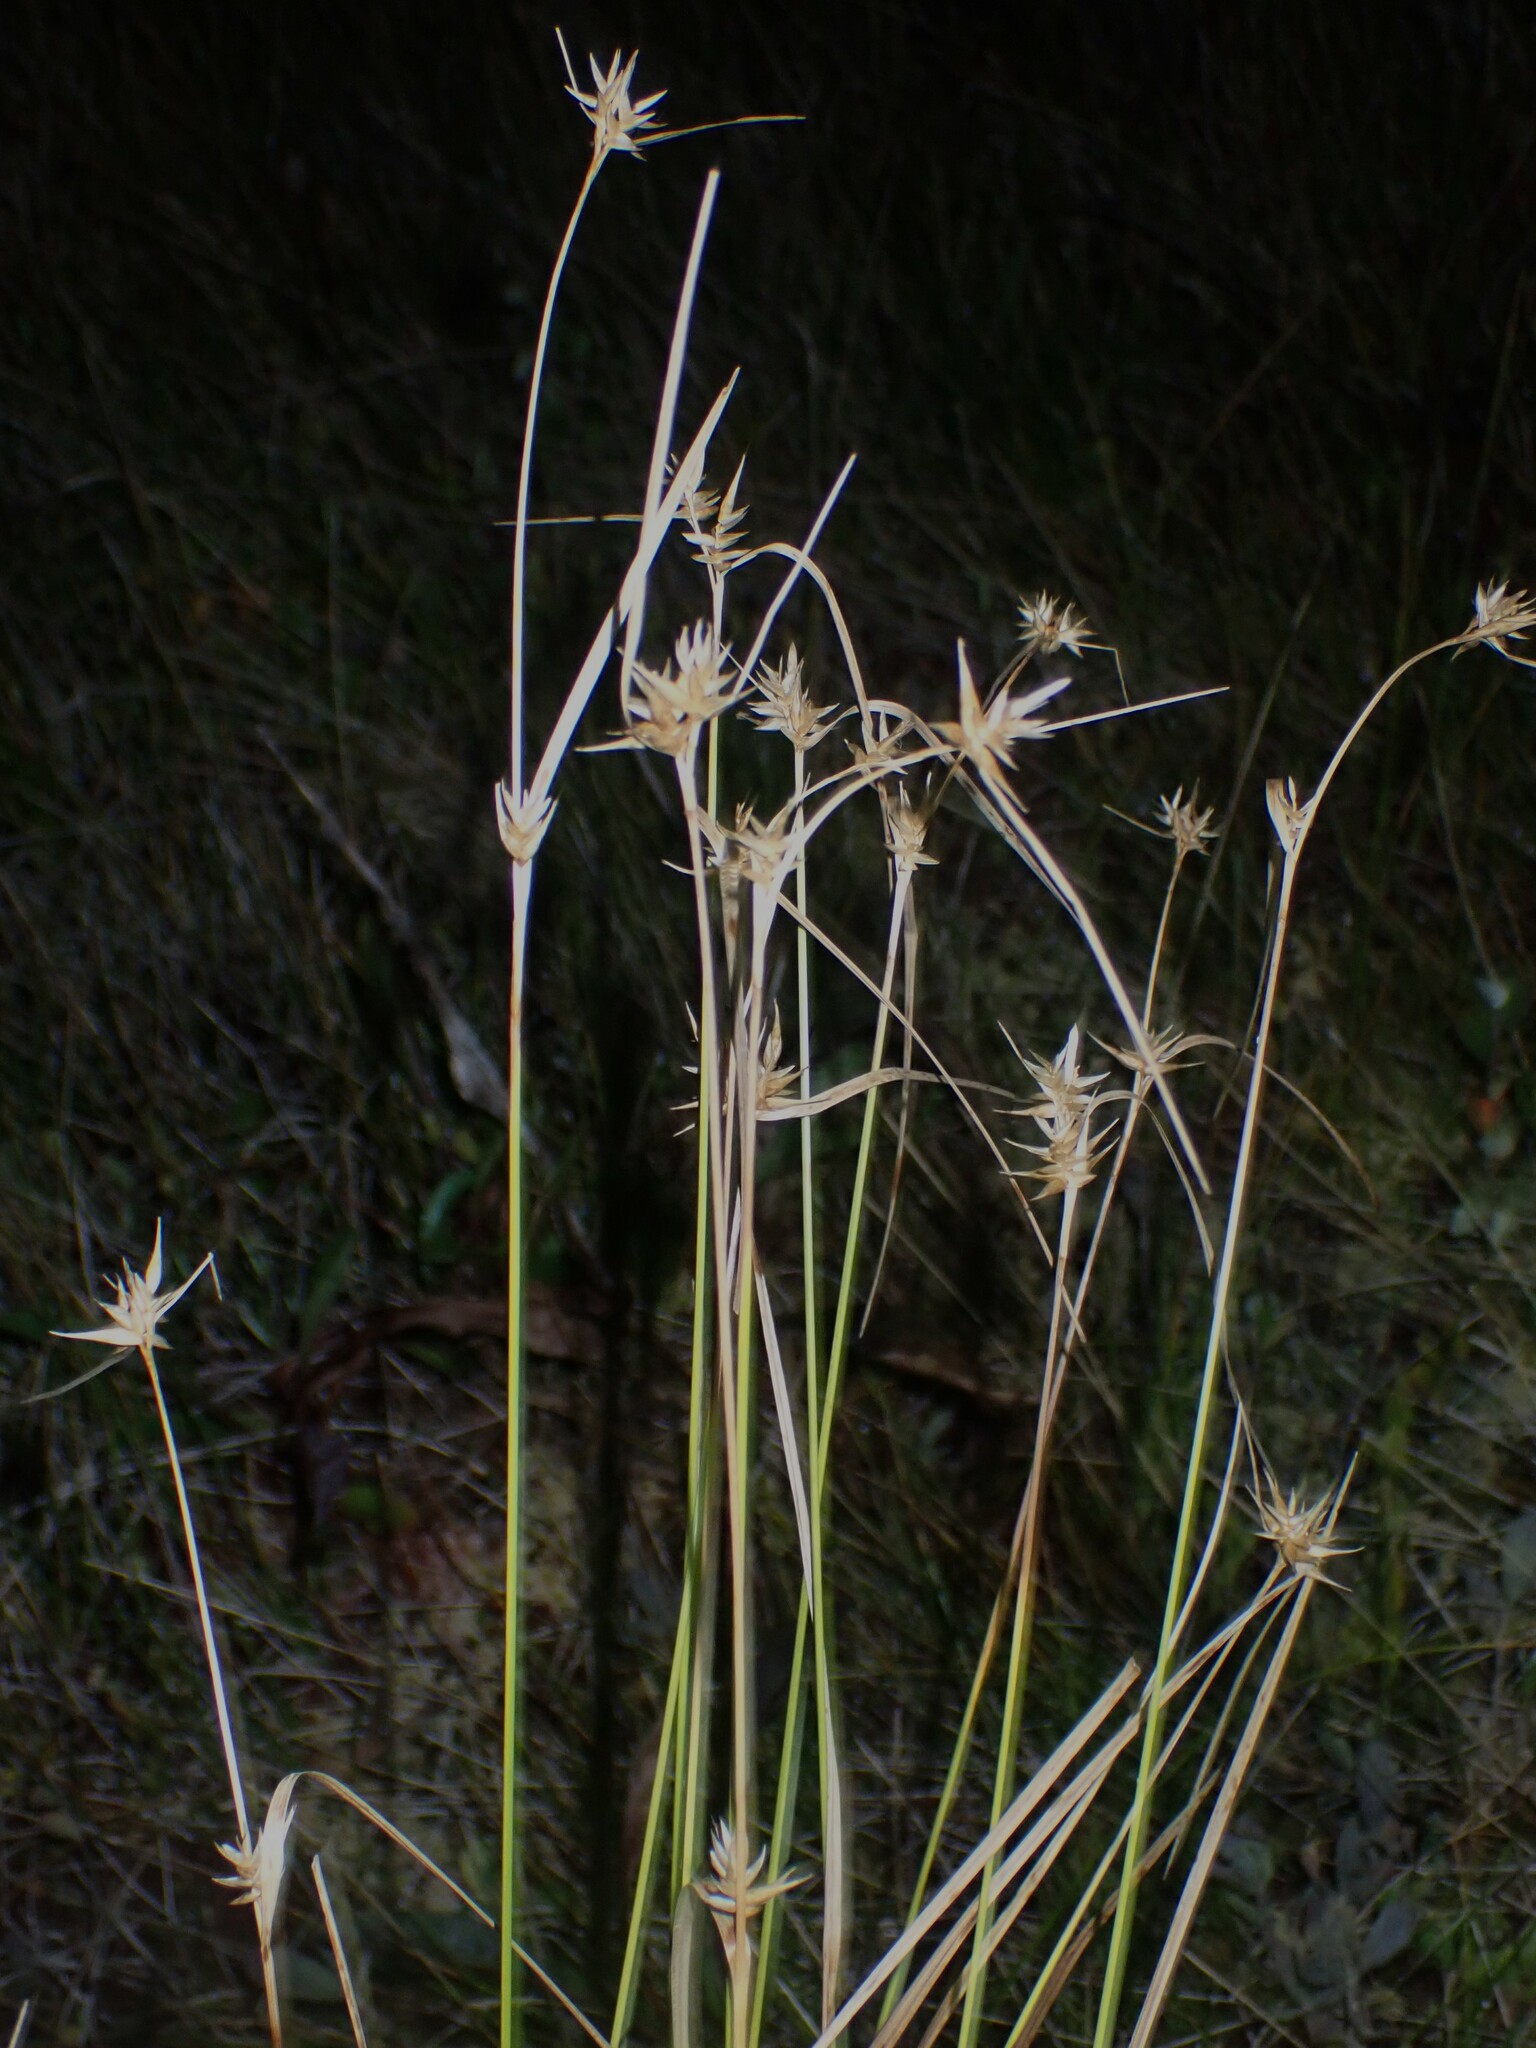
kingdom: Plantae
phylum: Tracheophyta
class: Liliopsida
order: Poales
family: Cyperaceae
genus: Carex
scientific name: Carex michauxiana
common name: Michaux's sedge
